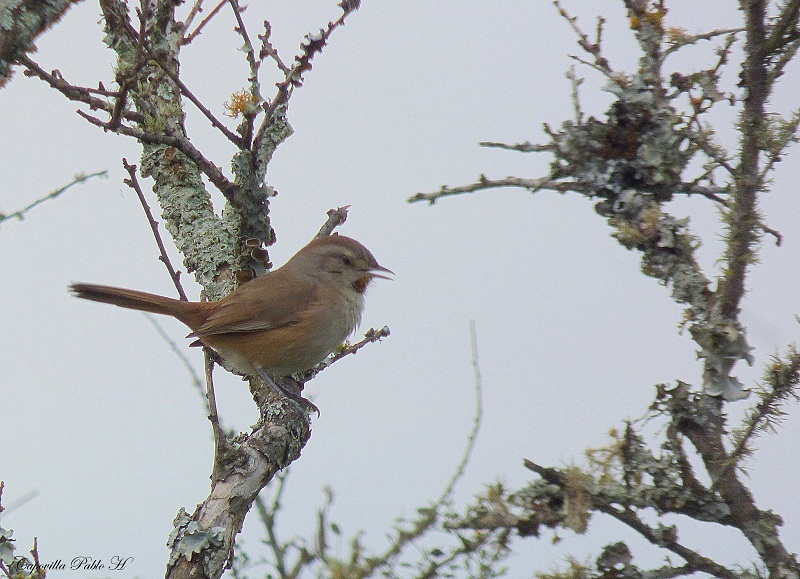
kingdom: Animalia
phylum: Chordata
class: Aves
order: Passeriformes
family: Furnariidae
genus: Asthenes
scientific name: Asthenes baeri
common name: Short-billed canastero
